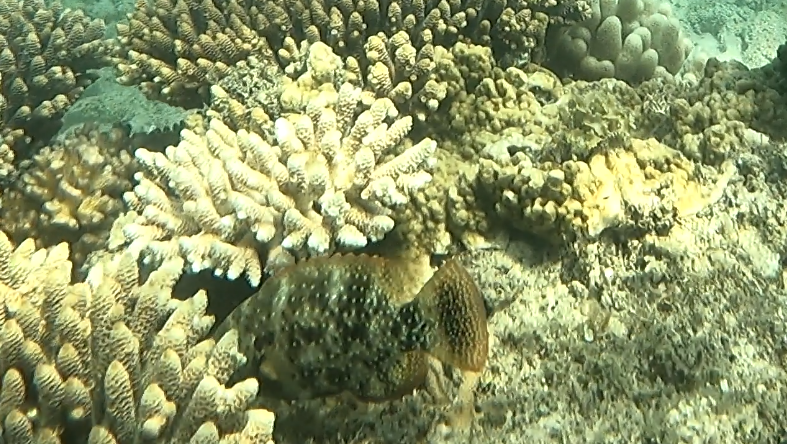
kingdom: Animalia
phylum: Chordata
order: Perciformes
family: Labridae
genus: Cheilinus
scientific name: Cheilinus chlorourus
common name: Floral wrasse
